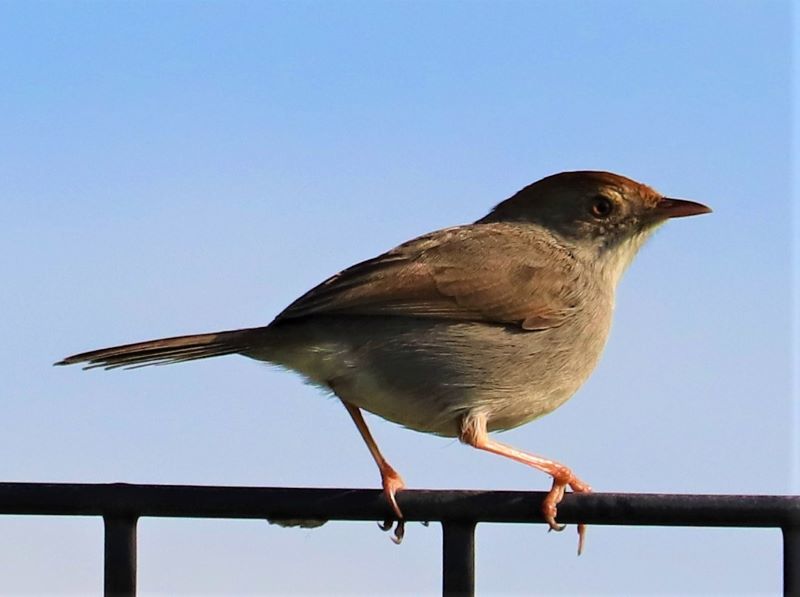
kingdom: Animalia
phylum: Chordata
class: Aves
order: Passeriformes
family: Cisticolidae
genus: Cisticola
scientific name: Cisticola fulvicapilla
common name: Neddicky
